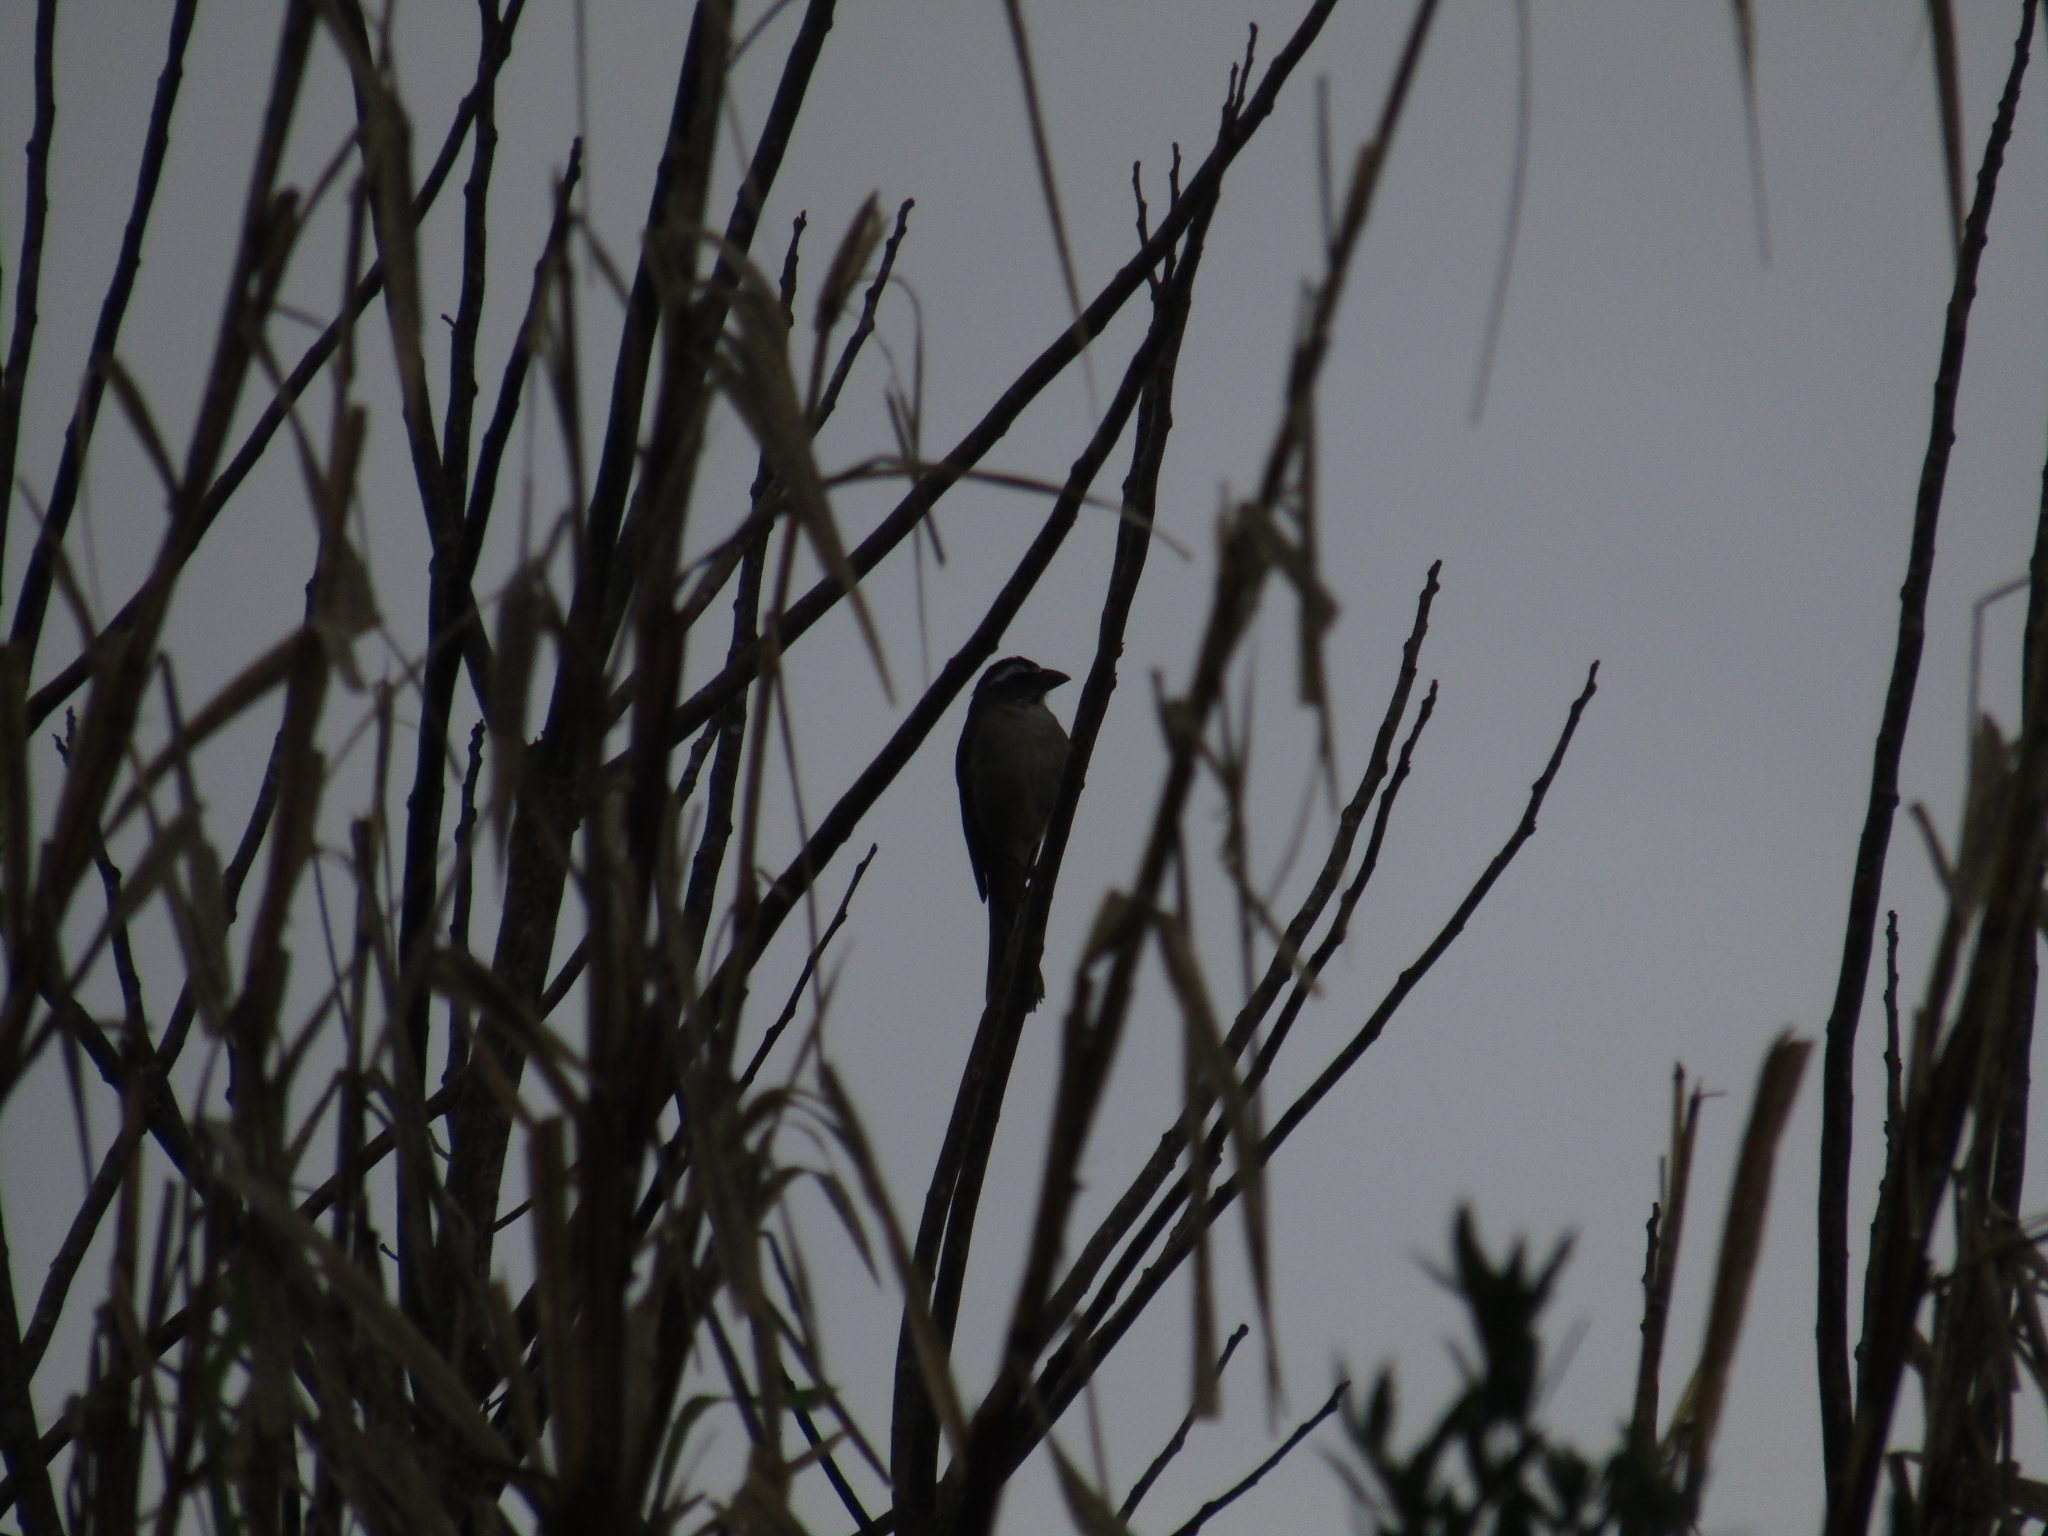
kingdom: Animalia
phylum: Chordata
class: Aves
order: Passeriformes
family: Thraupidae
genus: Saltator
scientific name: Saltator similis
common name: Green-winged saltator
